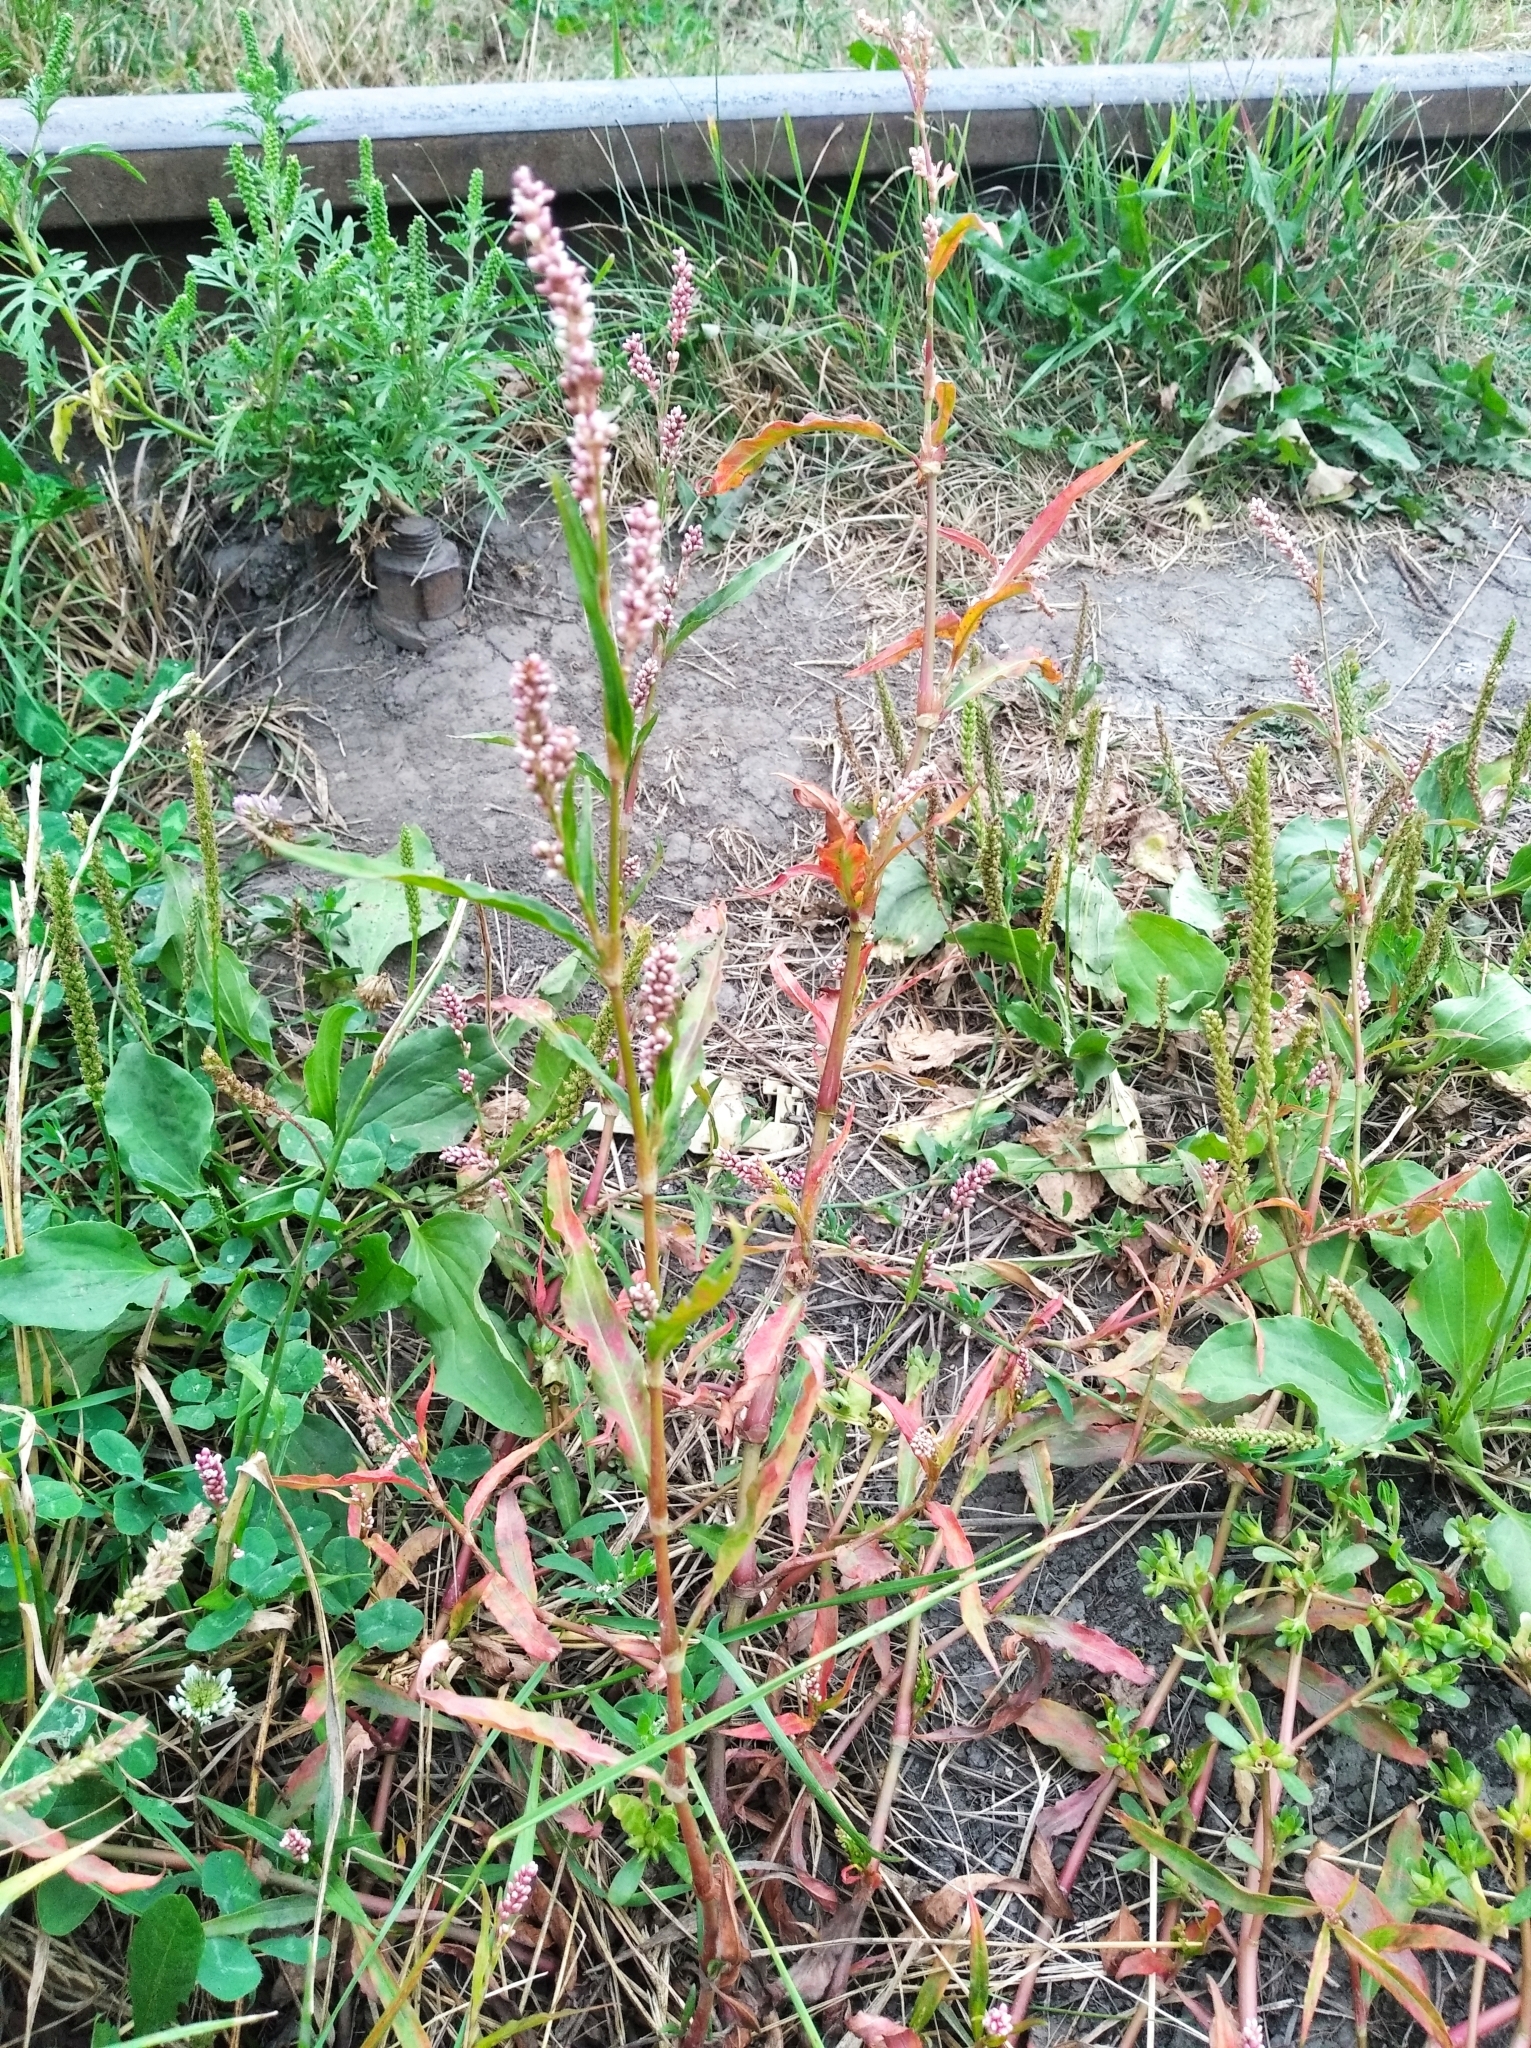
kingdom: Plantae
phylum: Tracheophyta
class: Magnoliopsida
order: Caryophyllales
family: Polygonaceae
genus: Persicaria
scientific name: Persicaria maculosa
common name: Redshank
